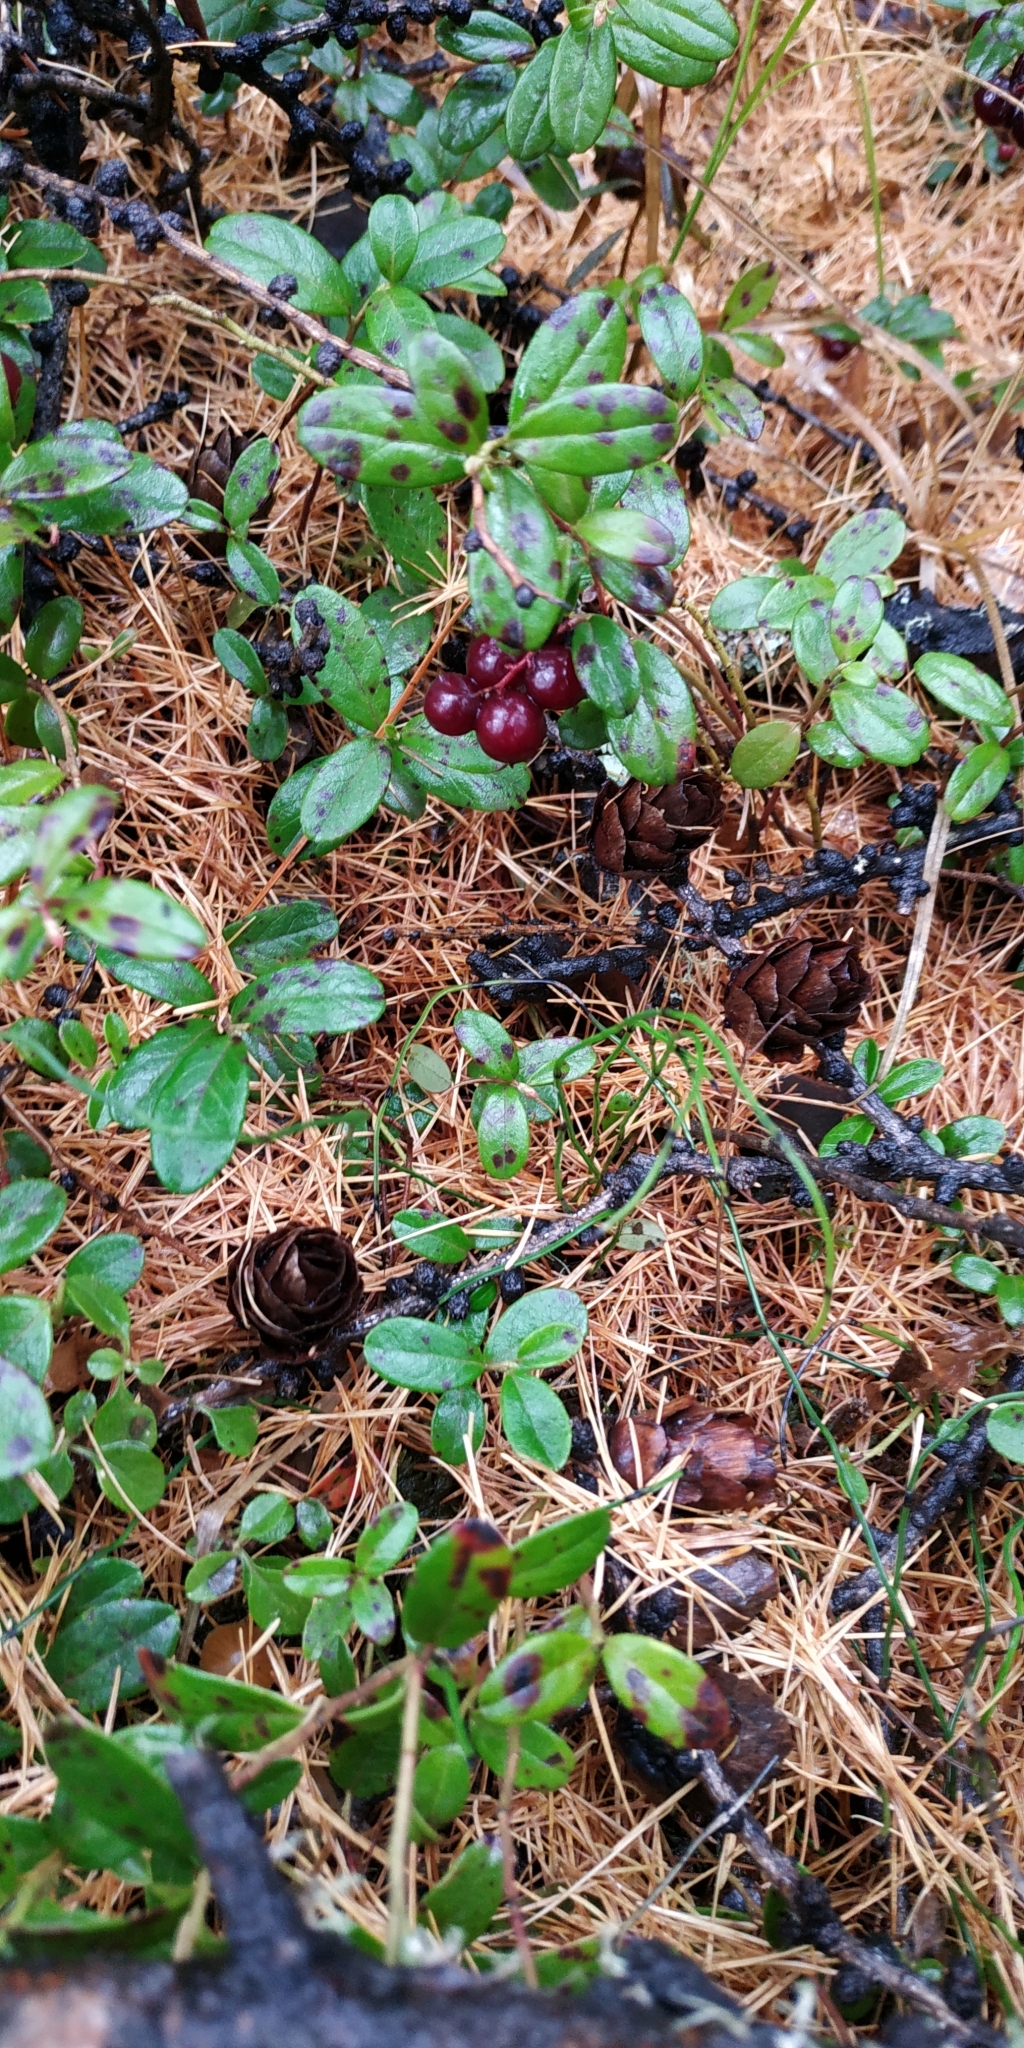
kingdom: Plantae
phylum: Tracheophyta
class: Magnoliopsida
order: Ericales
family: Ericaceae
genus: Vaccinium
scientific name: Vaccinium vitis-idaea
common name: Cowberry
